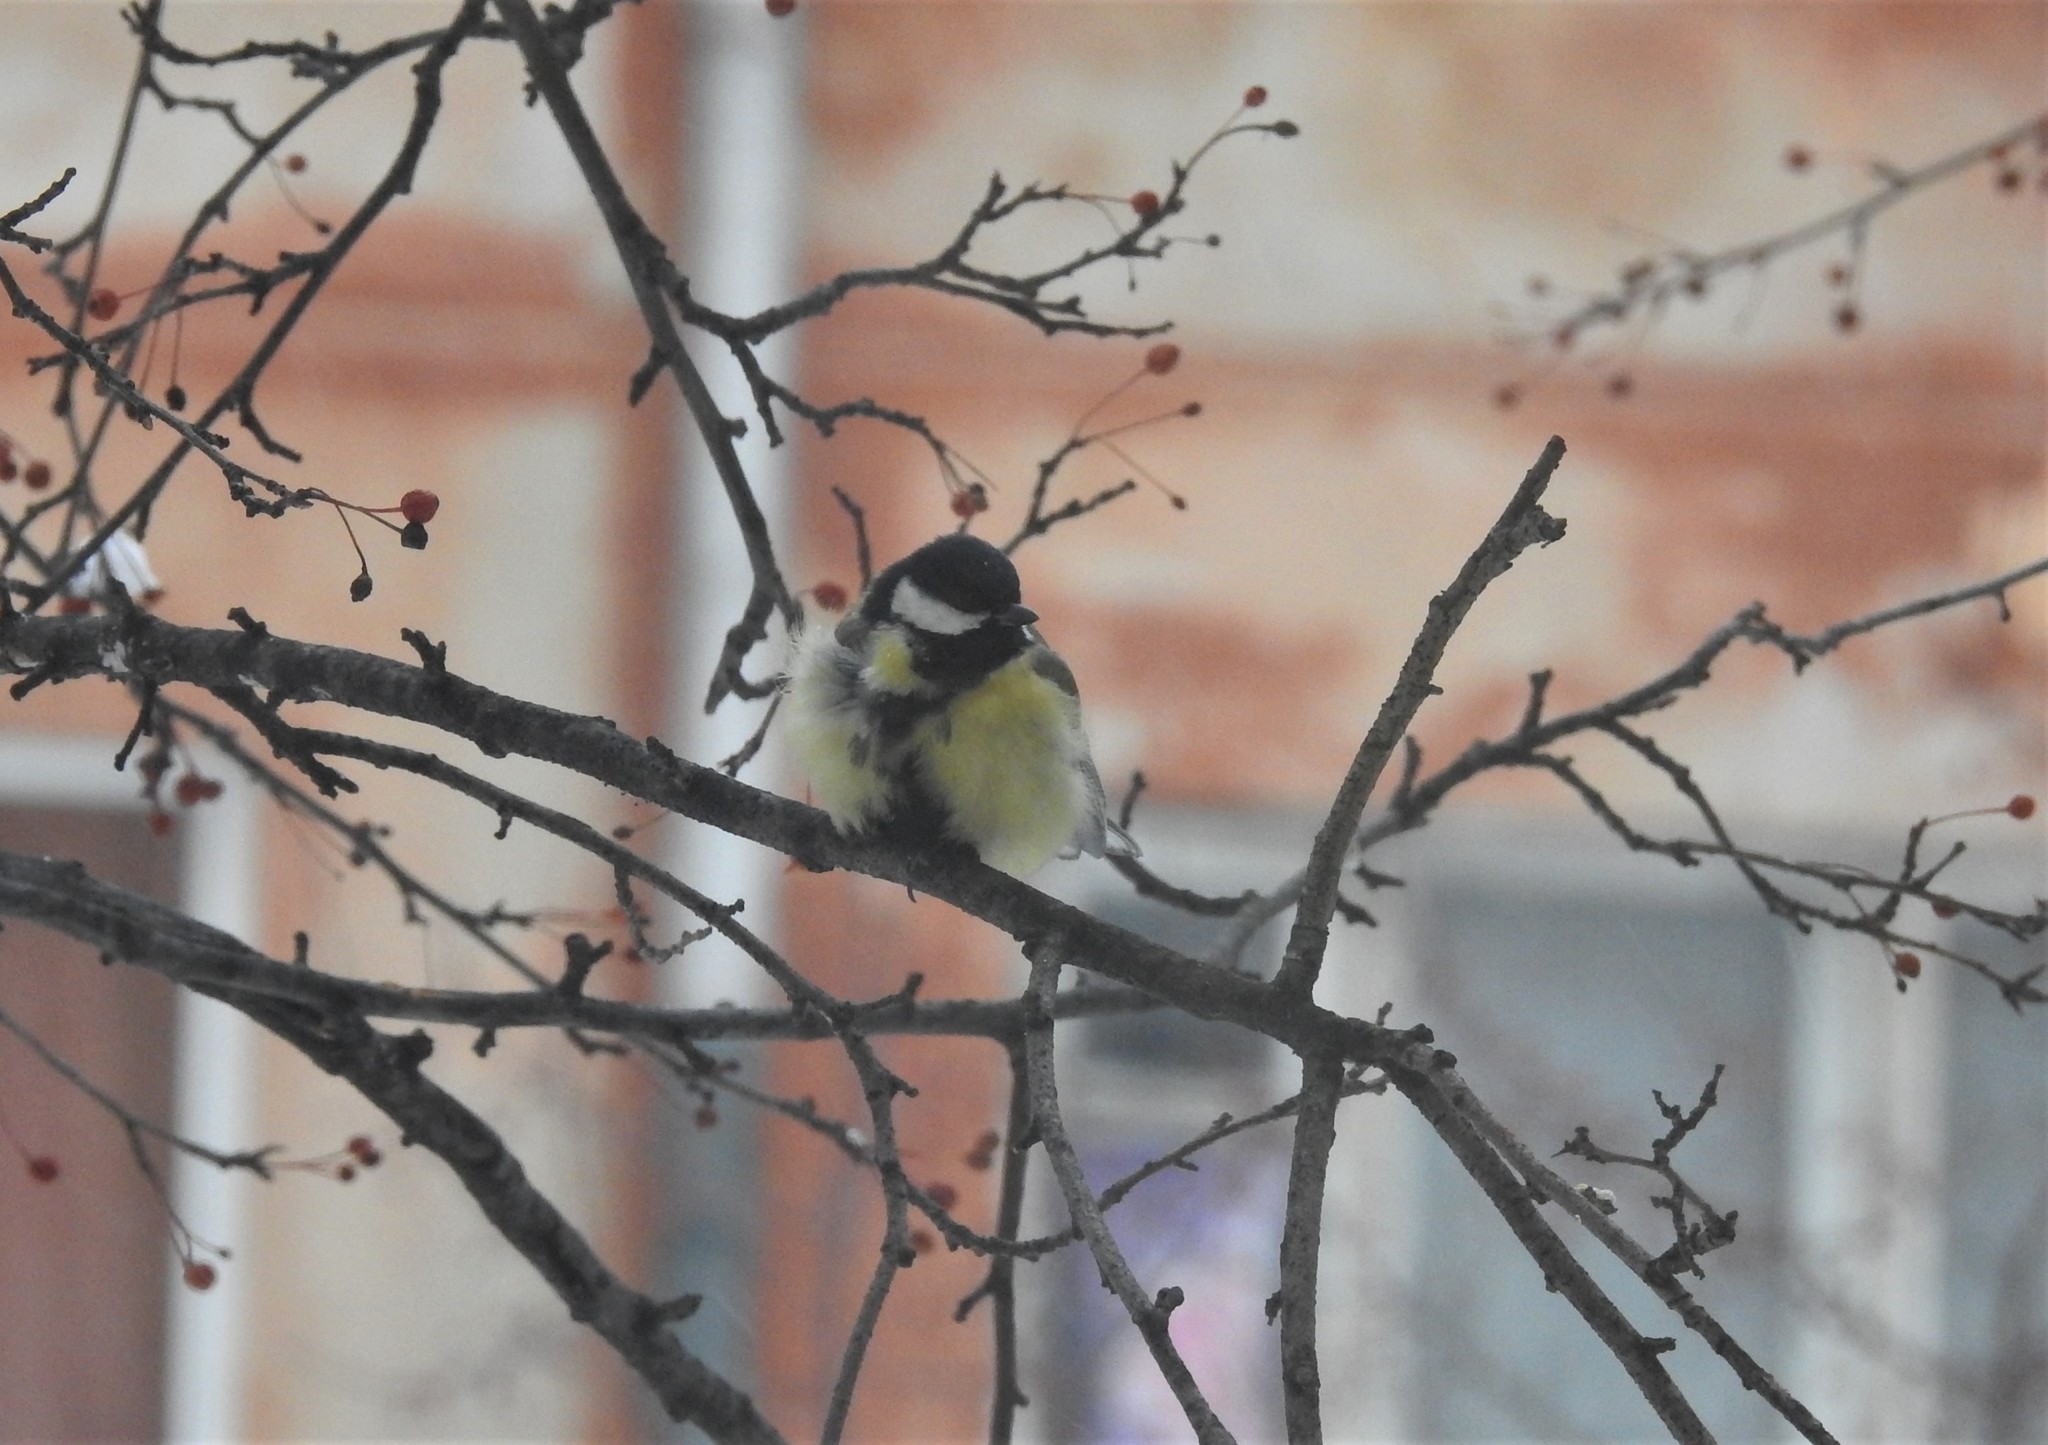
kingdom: Animalia
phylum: Chordata
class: Aves
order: Passeriformes
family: Paridae
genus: Parus
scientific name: Parus major
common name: Great tit
